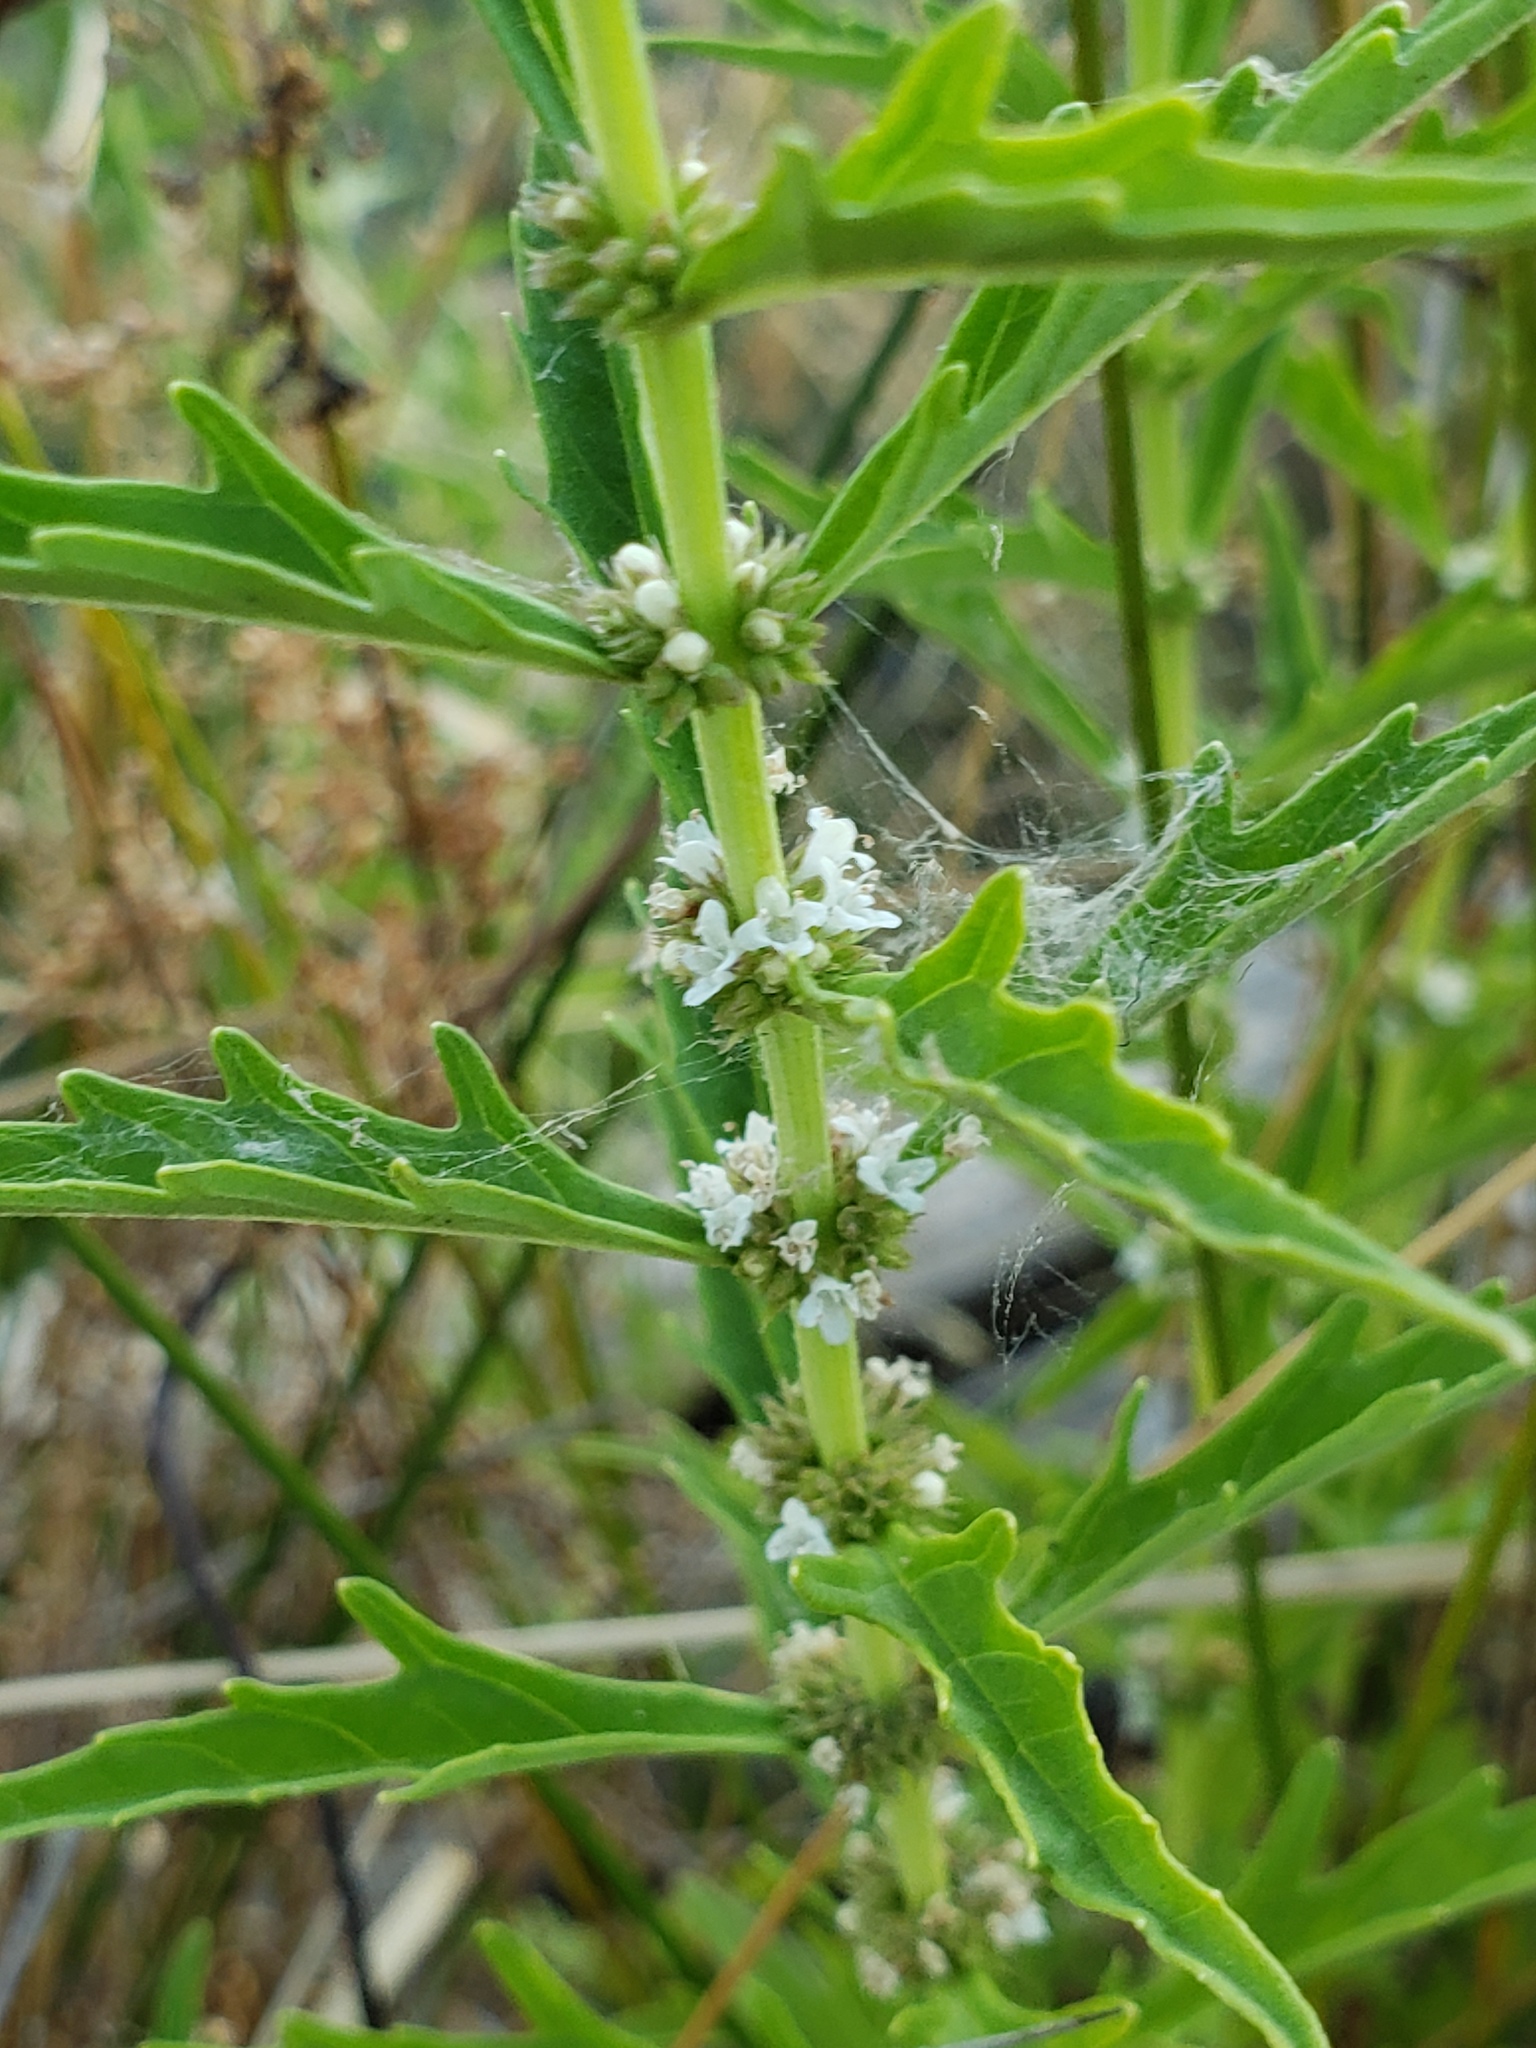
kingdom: Plantae
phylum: Tracheophyta
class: Magnoliopsida
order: Lamiales
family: Lamiaceae
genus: Lycopus
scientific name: Lycopus americanus
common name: American bugleweed
